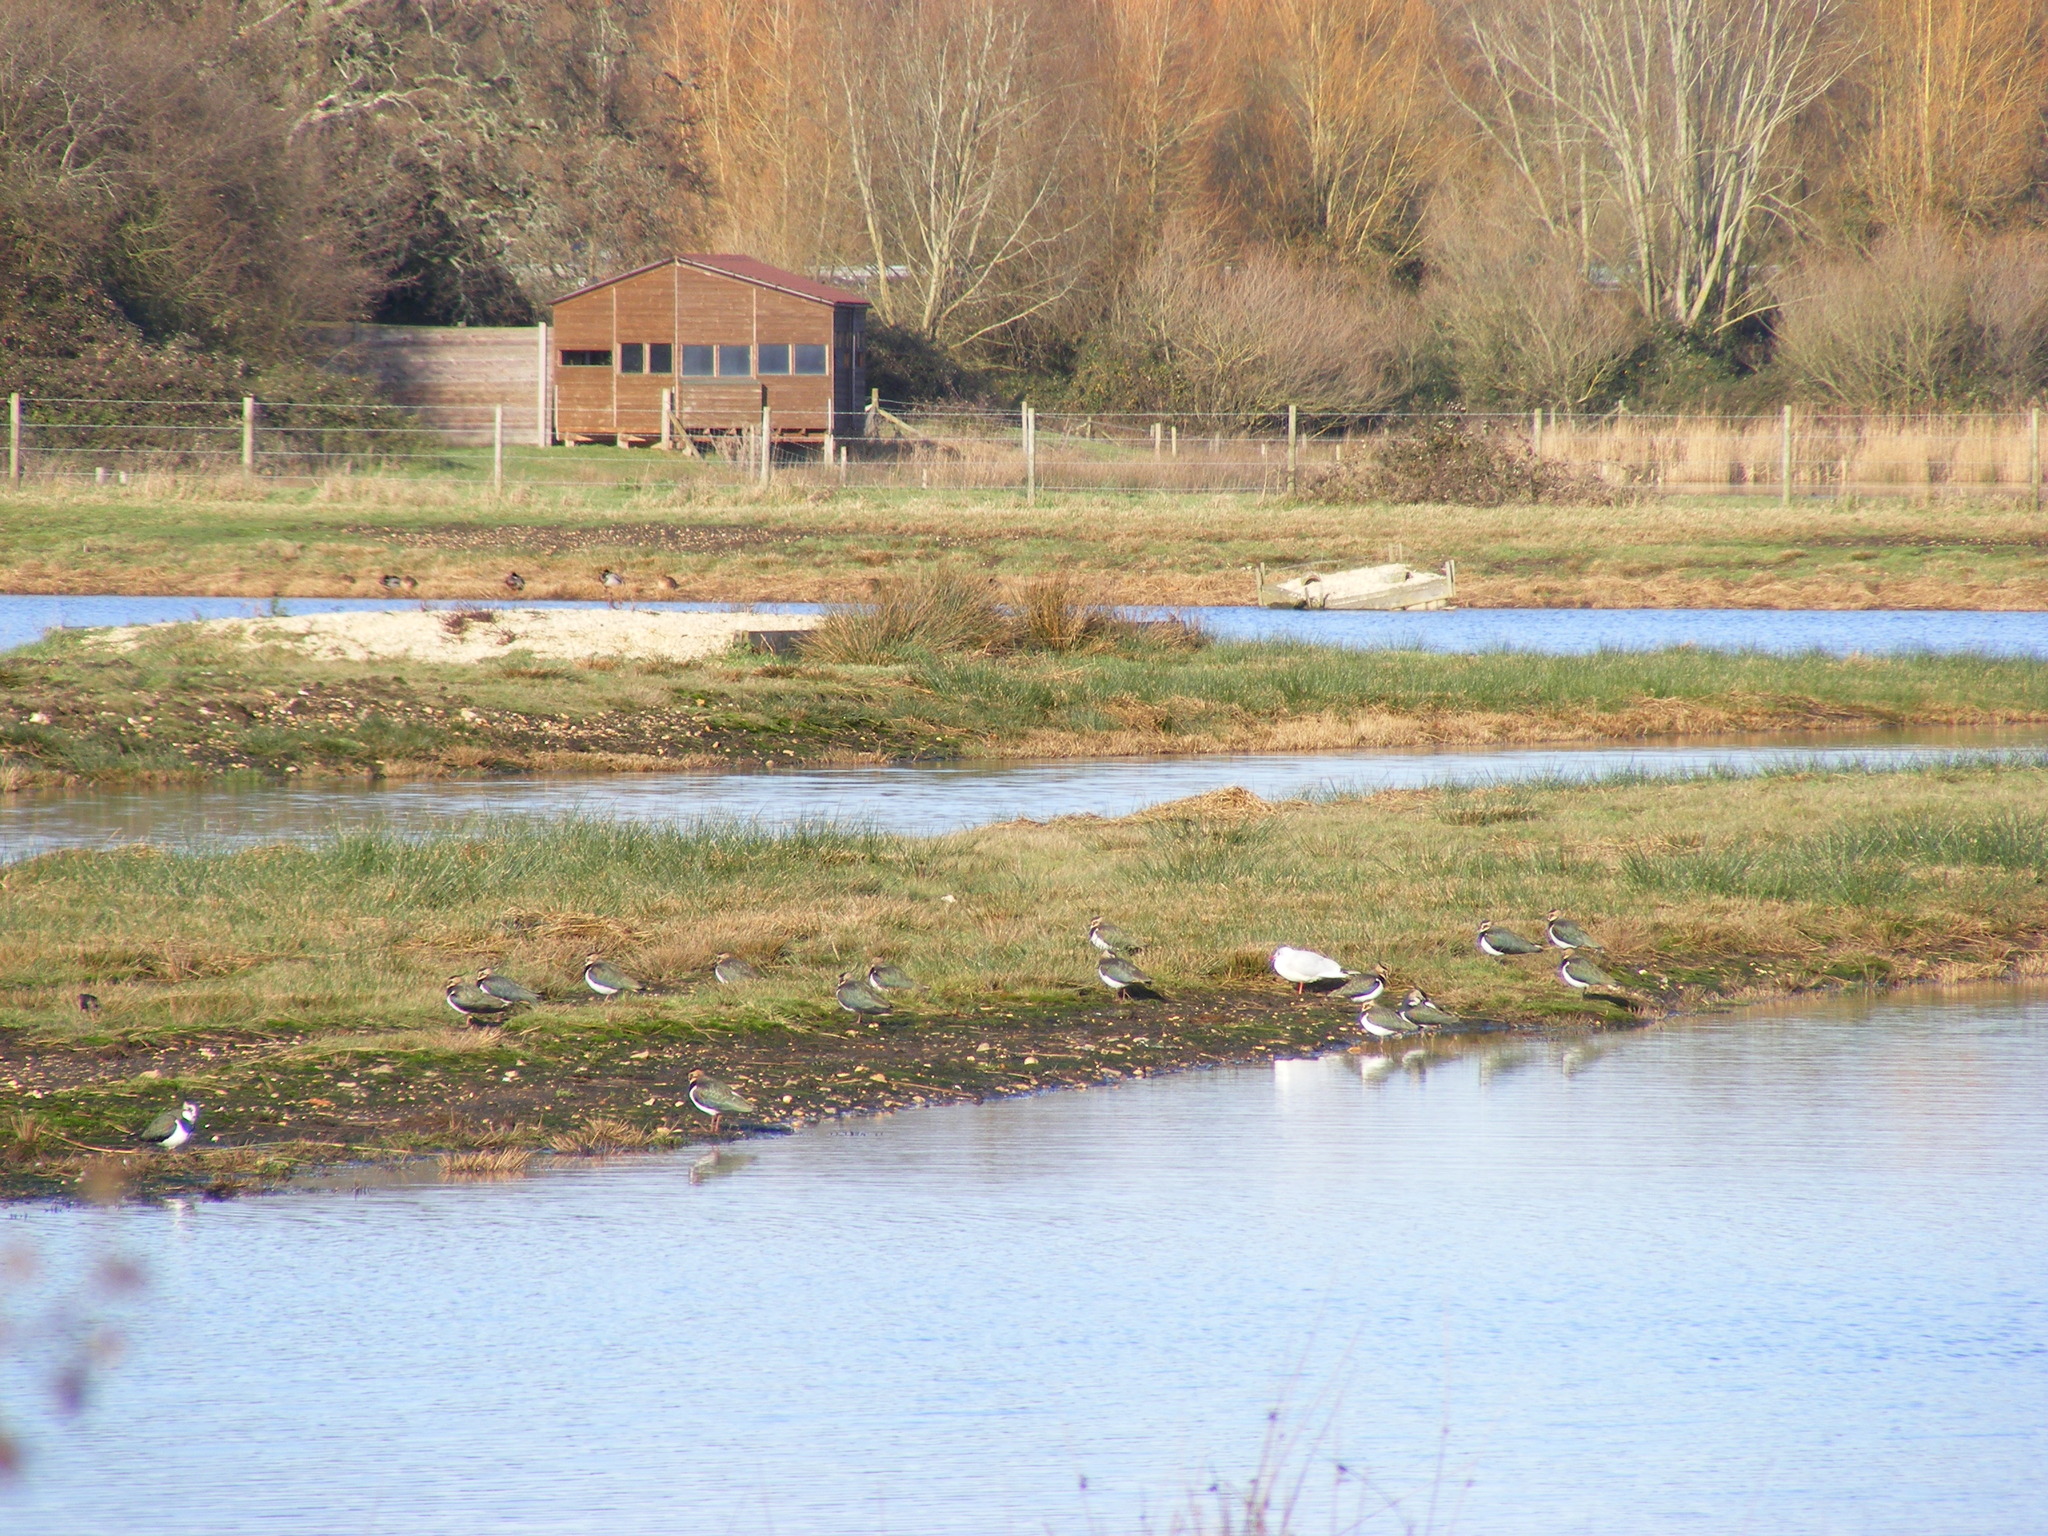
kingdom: Animalia
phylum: Chordata
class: Aves
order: Charadriiformes
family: Charadriidae
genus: Vanellus
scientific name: Vanellus vanellus
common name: Northern lapwing
